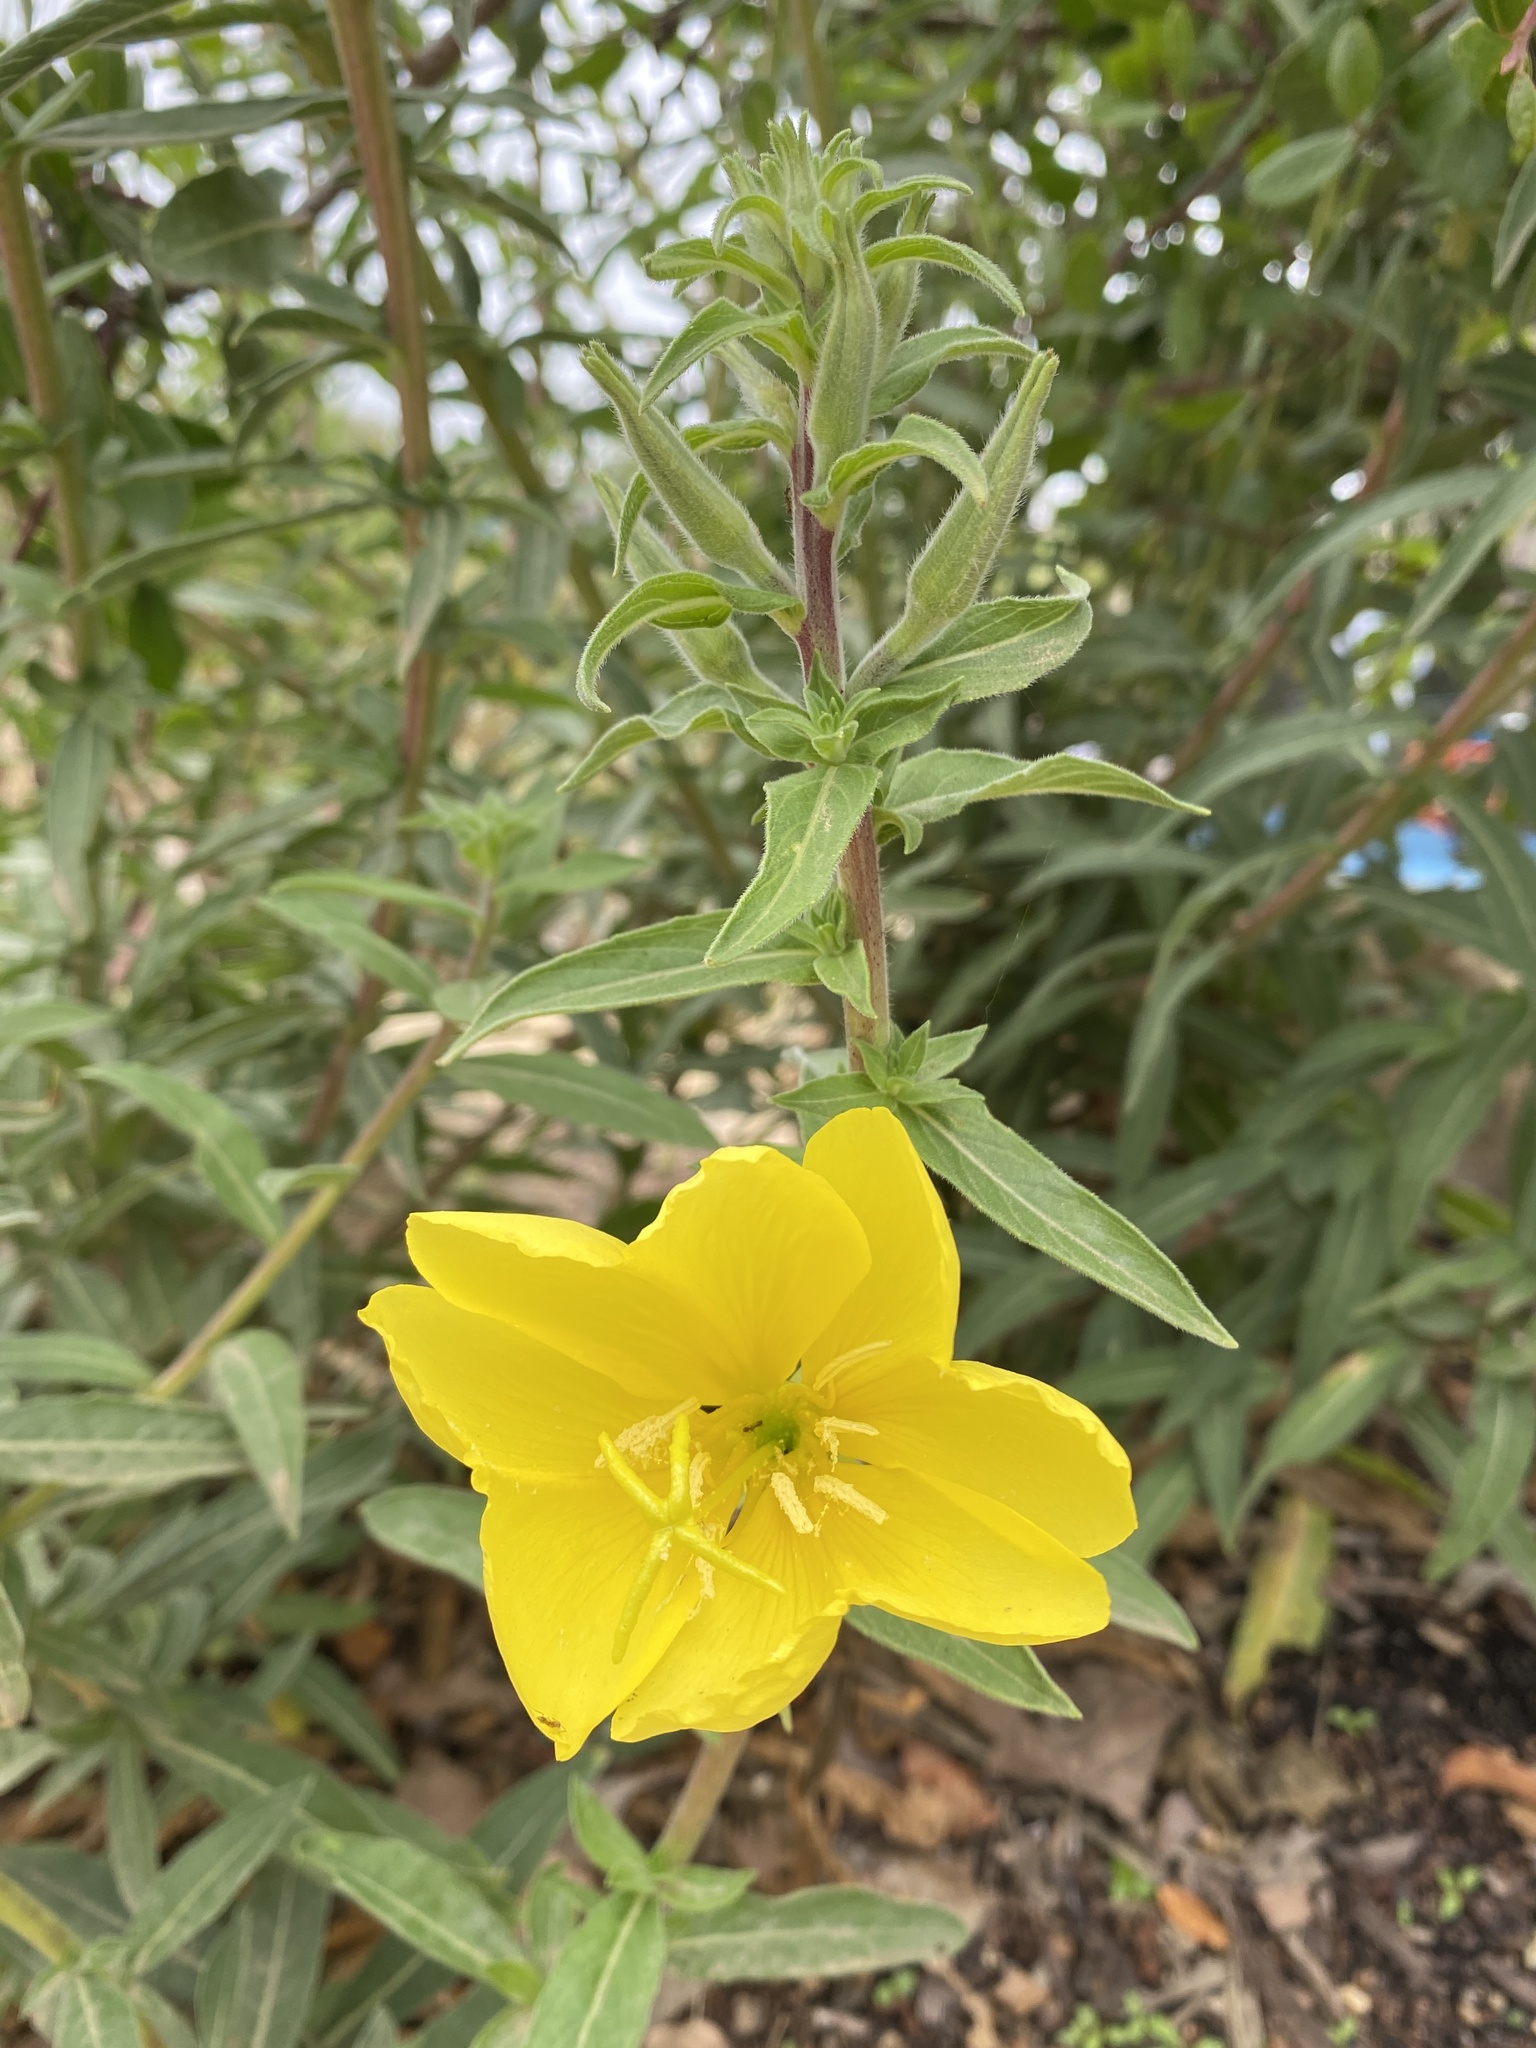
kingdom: Plantae
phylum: Tracheophyta
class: Magnoliopsida
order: Myrtales
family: Onagraceae
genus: Oenothera
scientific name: Oenothera elata
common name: Hooker's evening-primrose
